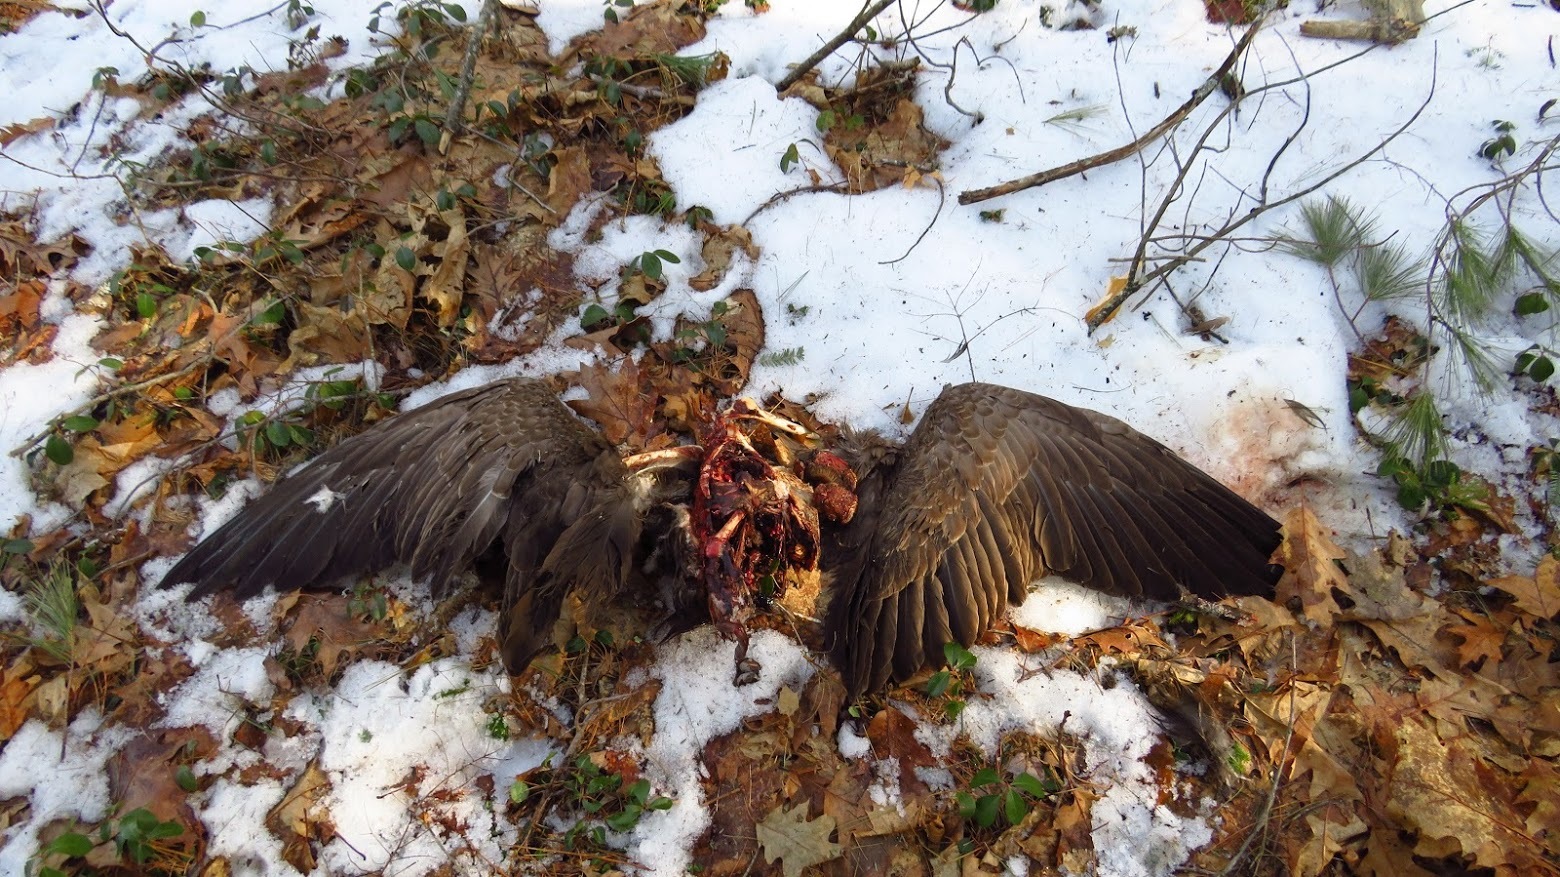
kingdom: Animalia
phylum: Chordata
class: Aves
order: Anseriformes
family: Anatidae
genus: Branta
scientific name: Branta canadensis
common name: Canada goose
